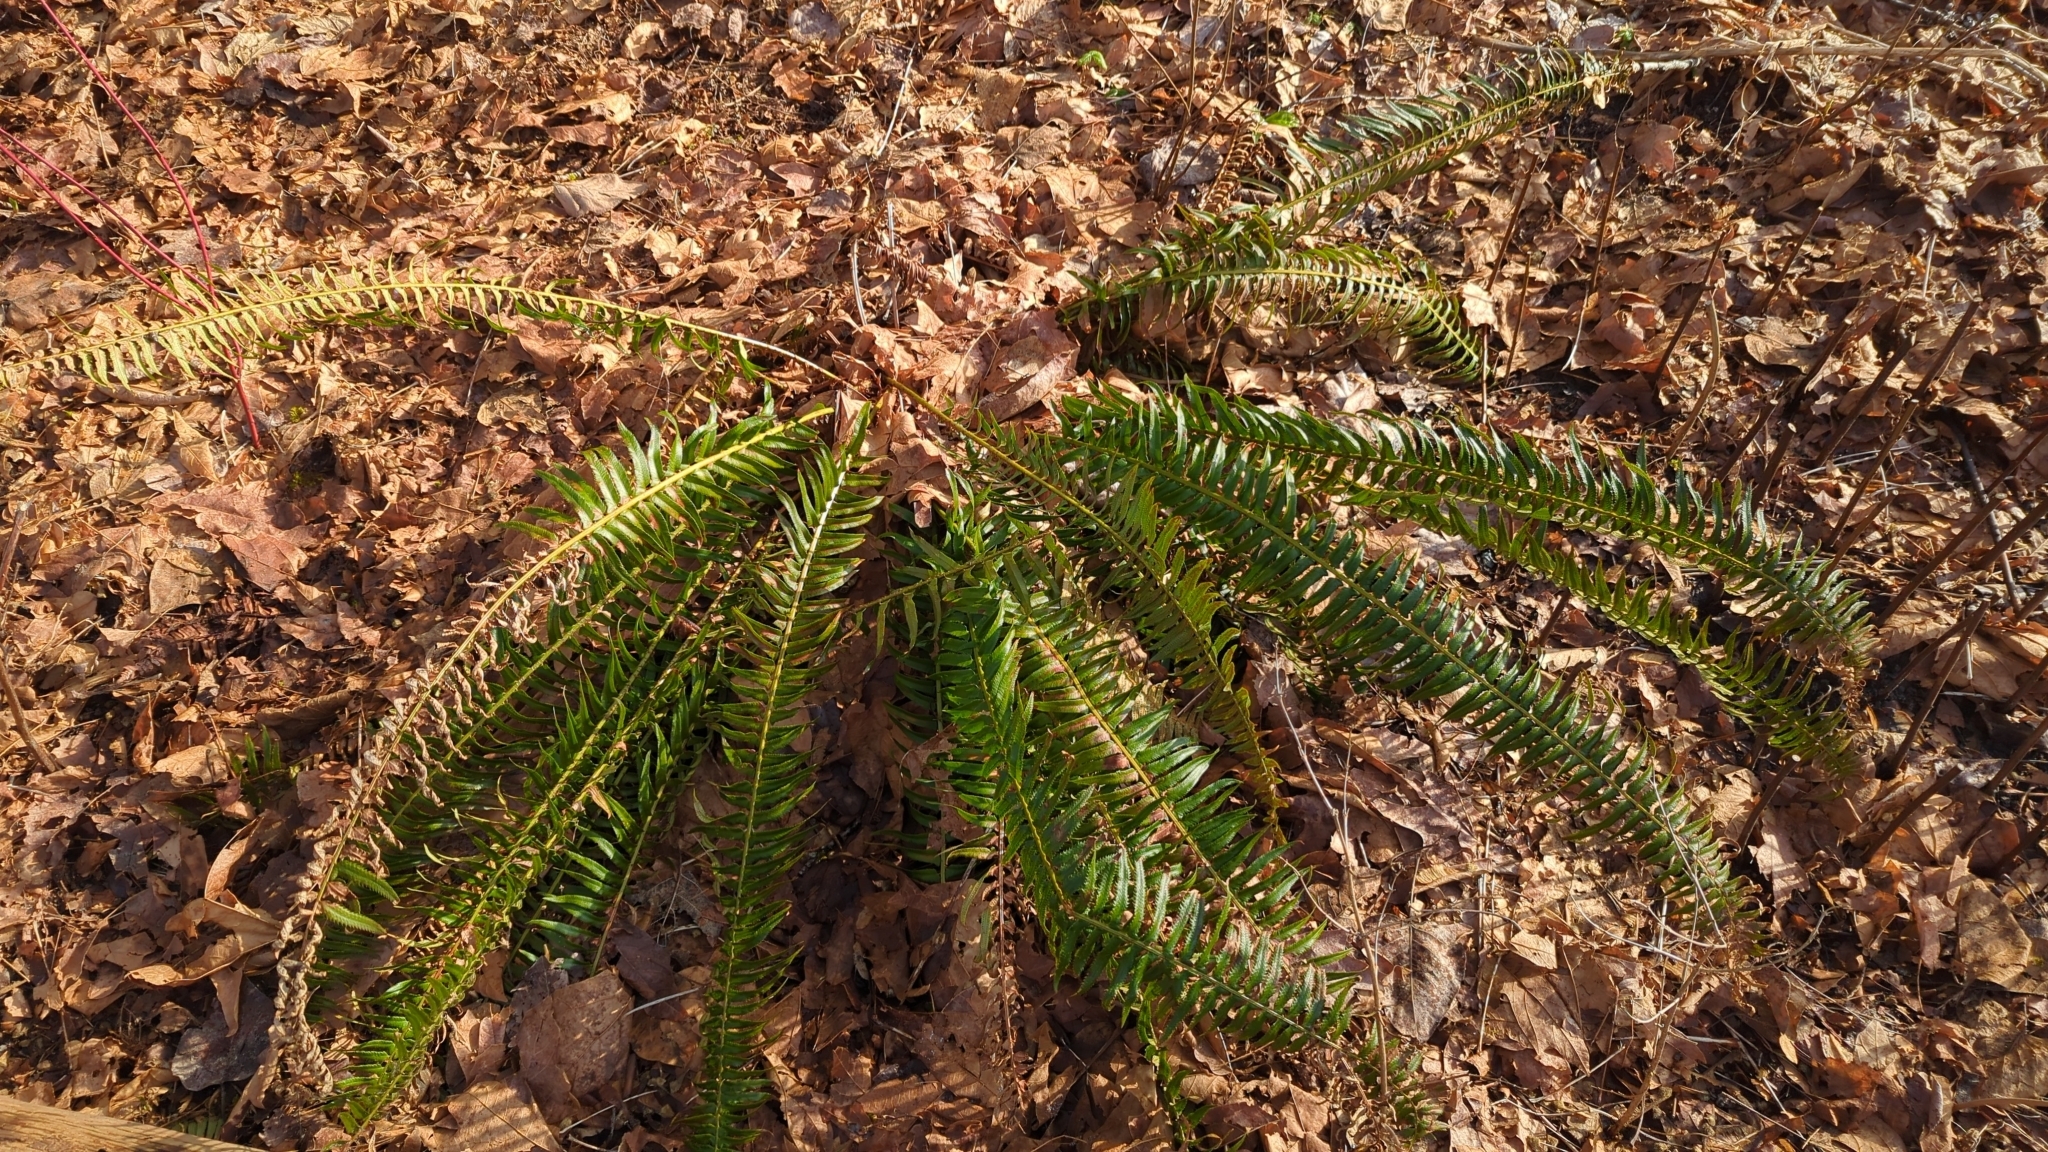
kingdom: Plantae
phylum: Tracheophyta
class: Polypodiopsida
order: Polypodiales
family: Dryopteridaceae
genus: Polystichum
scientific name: Polystichum munitum
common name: Western sword-fern
